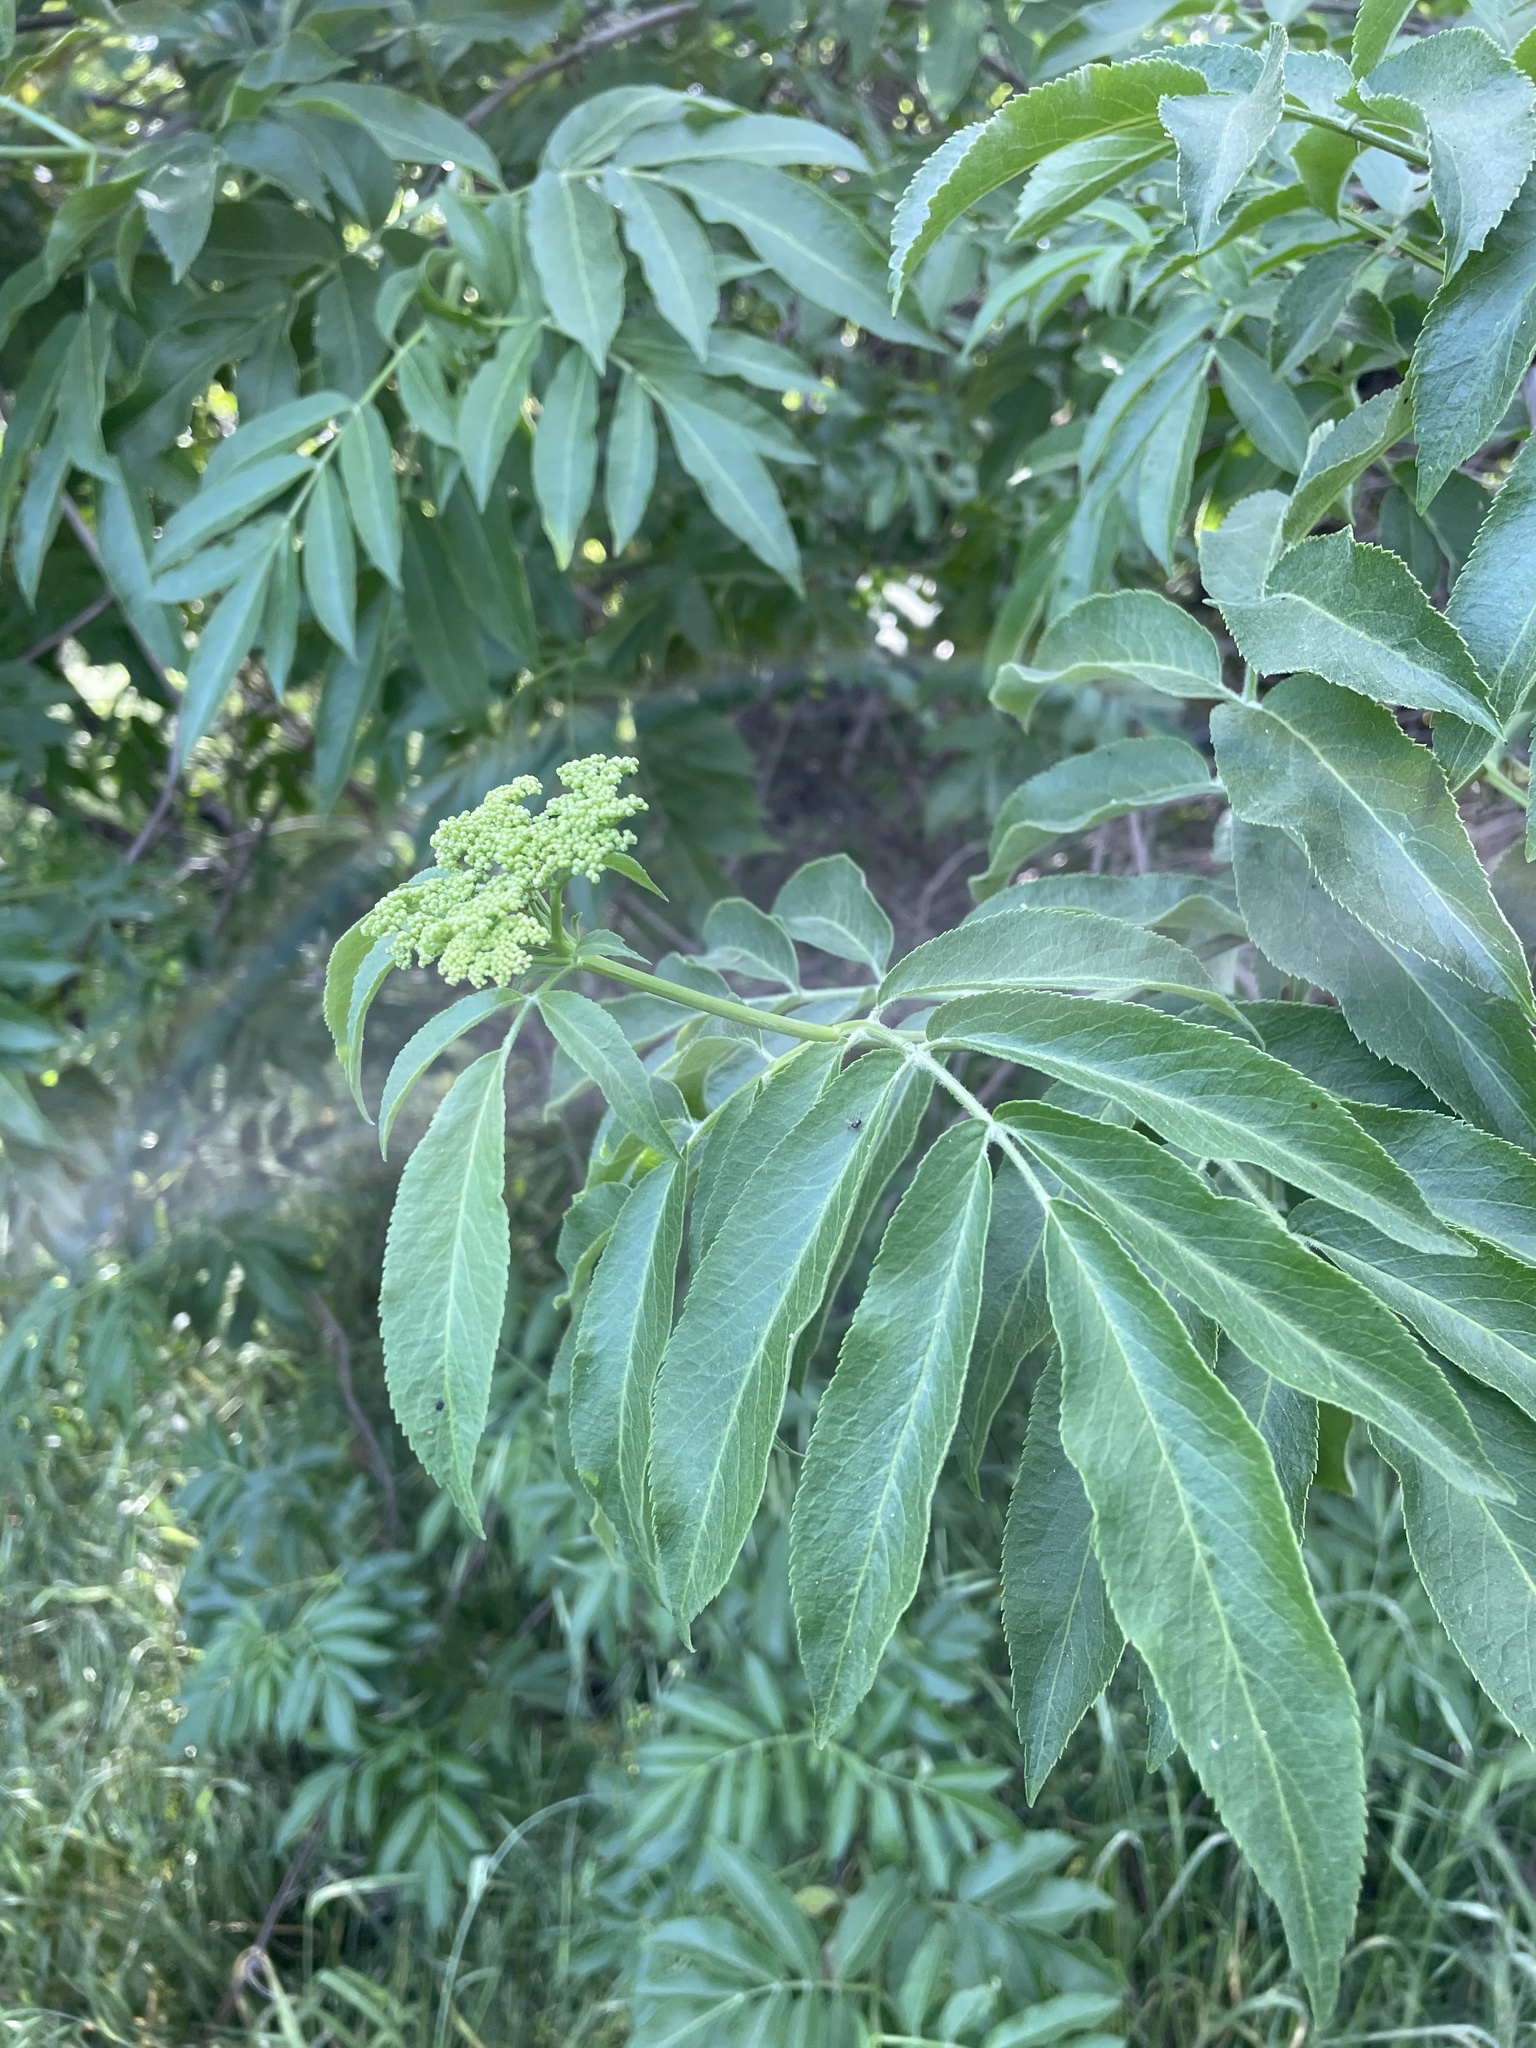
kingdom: Plantae
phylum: Tracheophyta
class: Magnoliopsida
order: Dipsacales
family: Viburnaceae
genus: Sambucus
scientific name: Sambucus cerulea
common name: Blue elder
